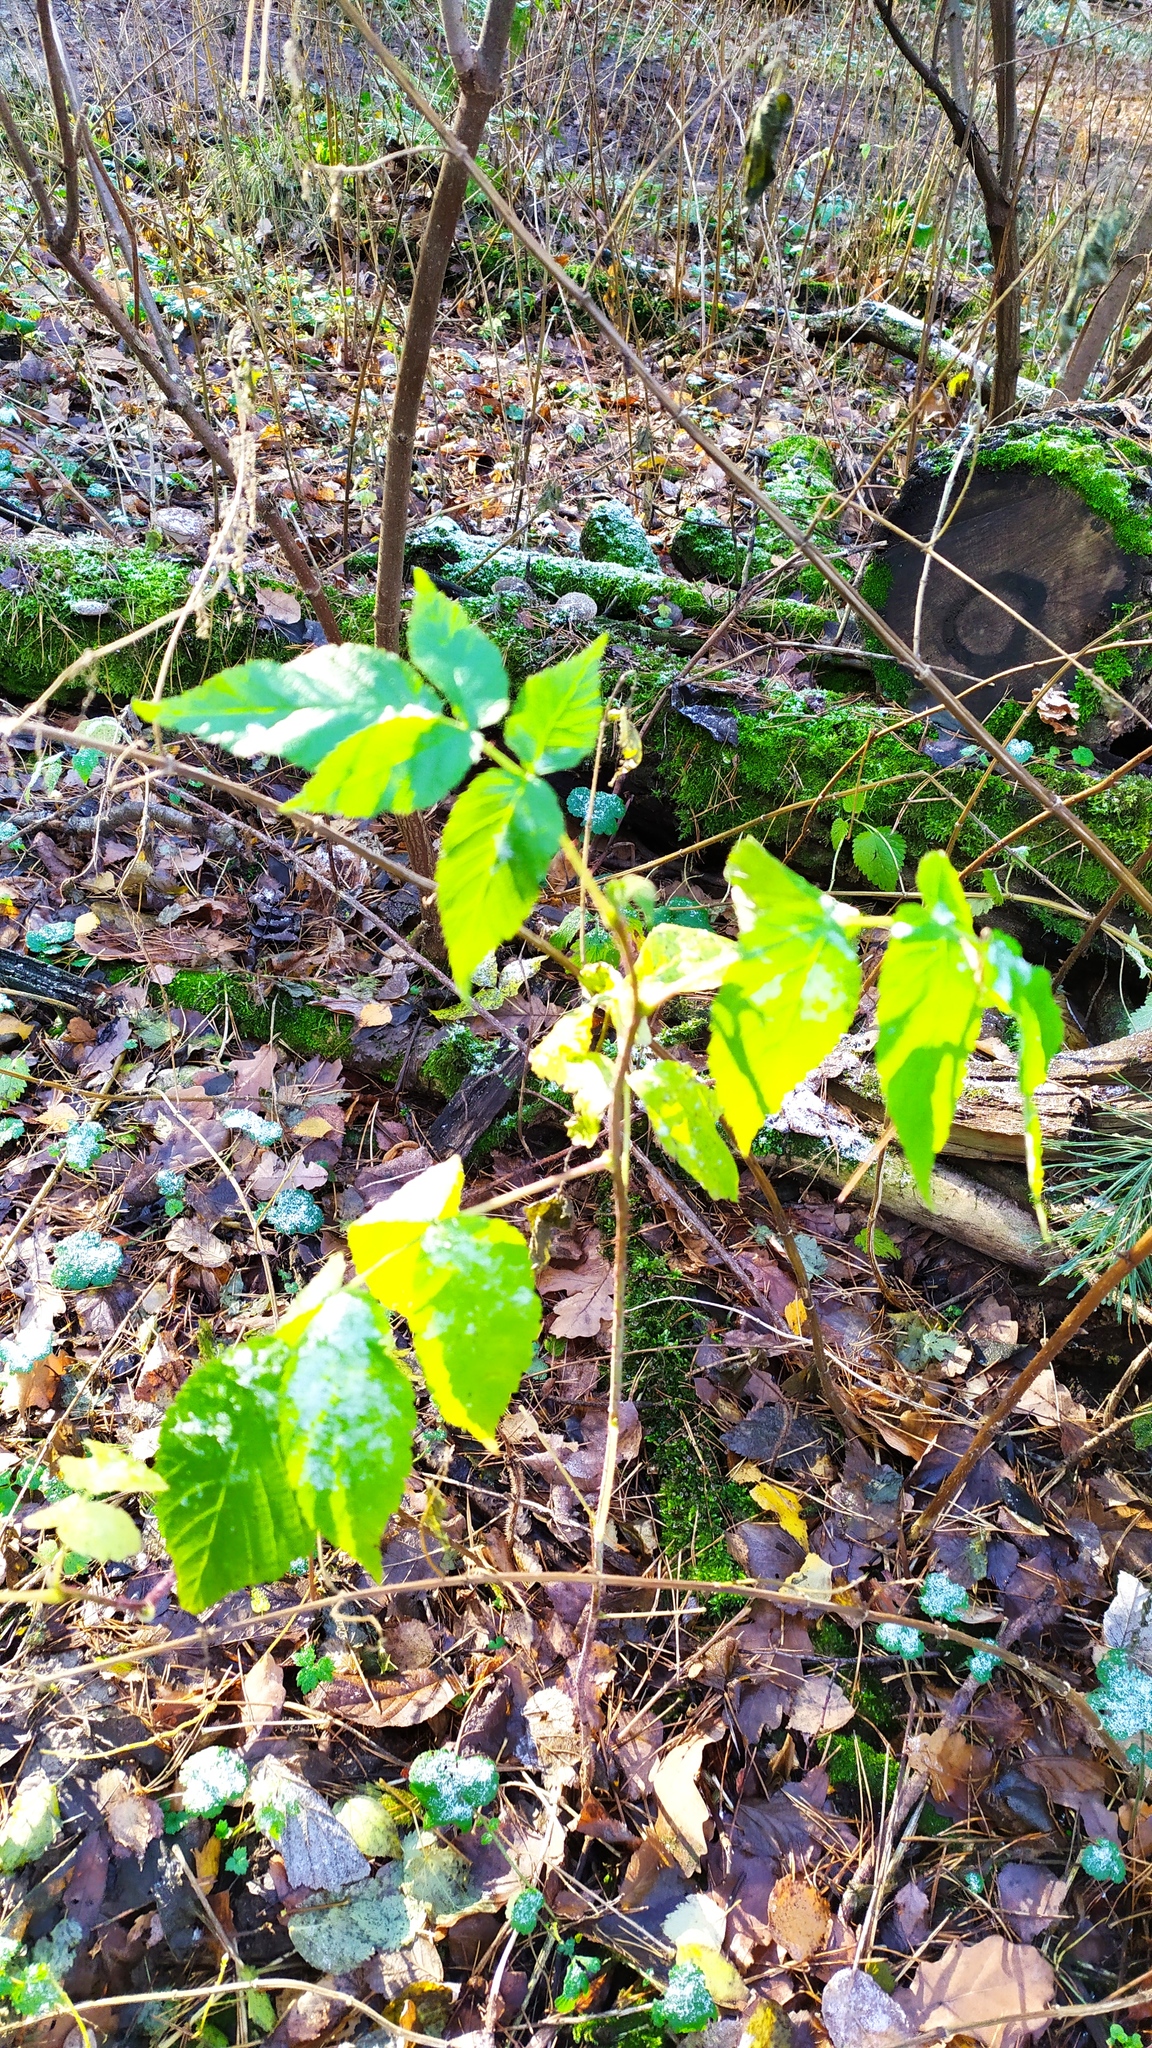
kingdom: Plantae
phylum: Tracheophyta
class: Magnoliopsida
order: Rosales
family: Rosaceae
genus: Rubus
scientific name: Rubus idaeus
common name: Raspberry
